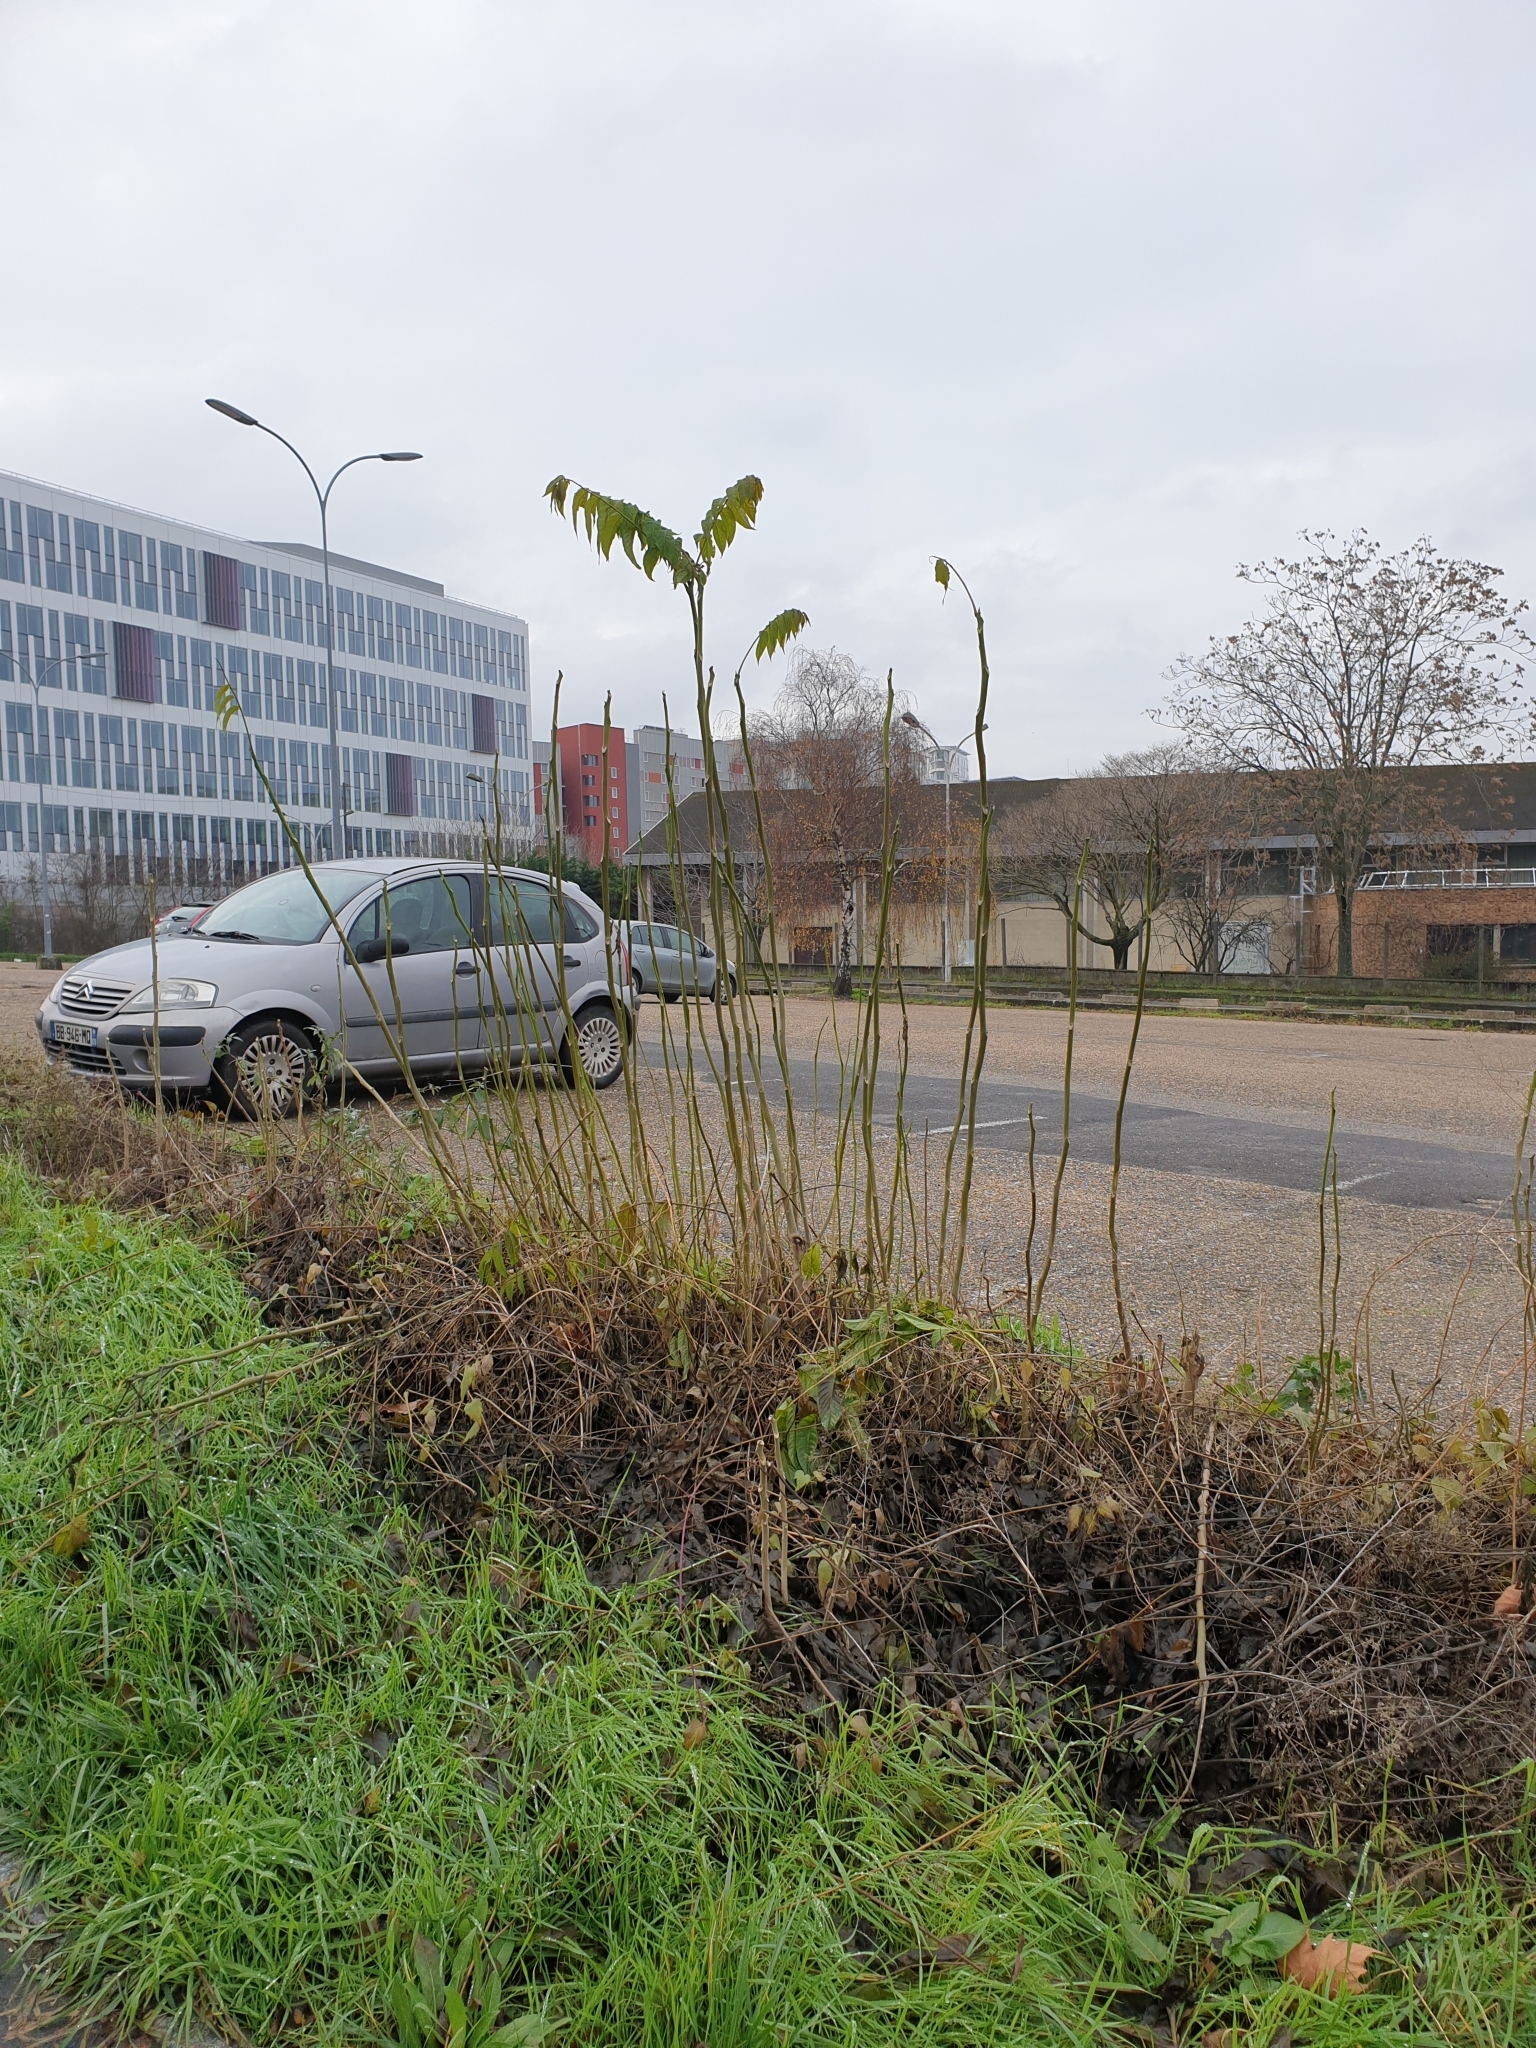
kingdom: Plantae
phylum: Tracheophyta
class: Magnoliopsida
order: Sapindales
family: Simaroubaceae
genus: Ailanthus
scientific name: Ailanthus altissima
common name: Tree-of-heaven
